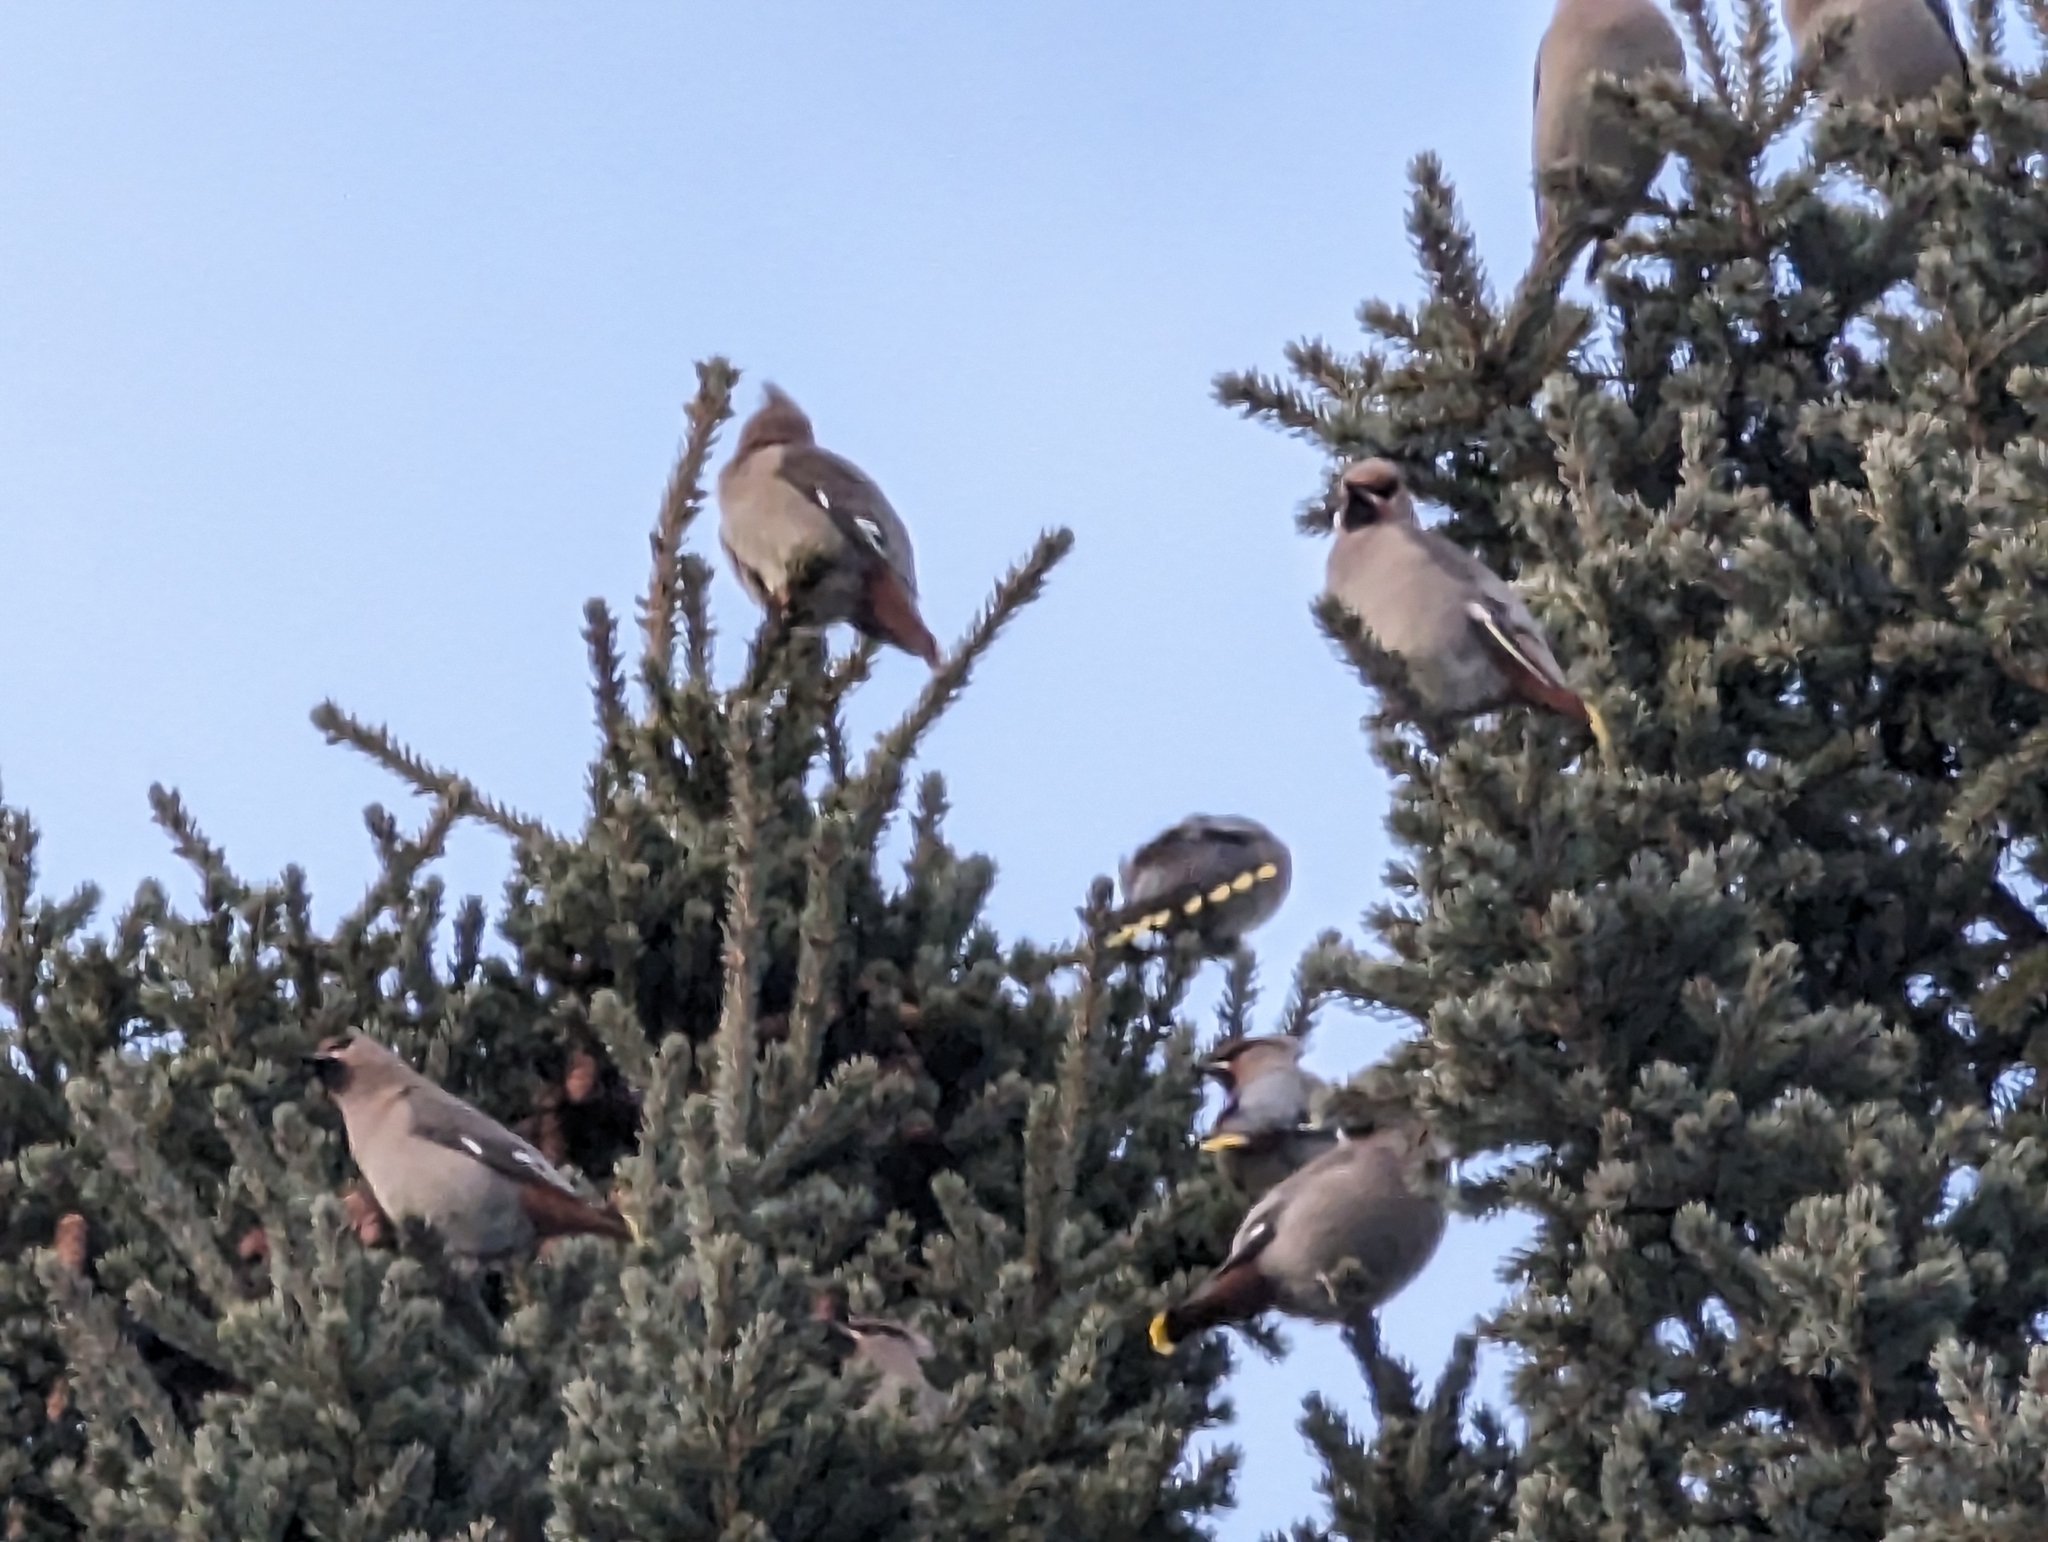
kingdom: Animalia
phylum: Chordata
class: Aves
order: Passeriformes
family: Bombycillidae
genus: Bombycilla
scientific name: Bombycilla garrulus
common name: Bohemian waxwing
